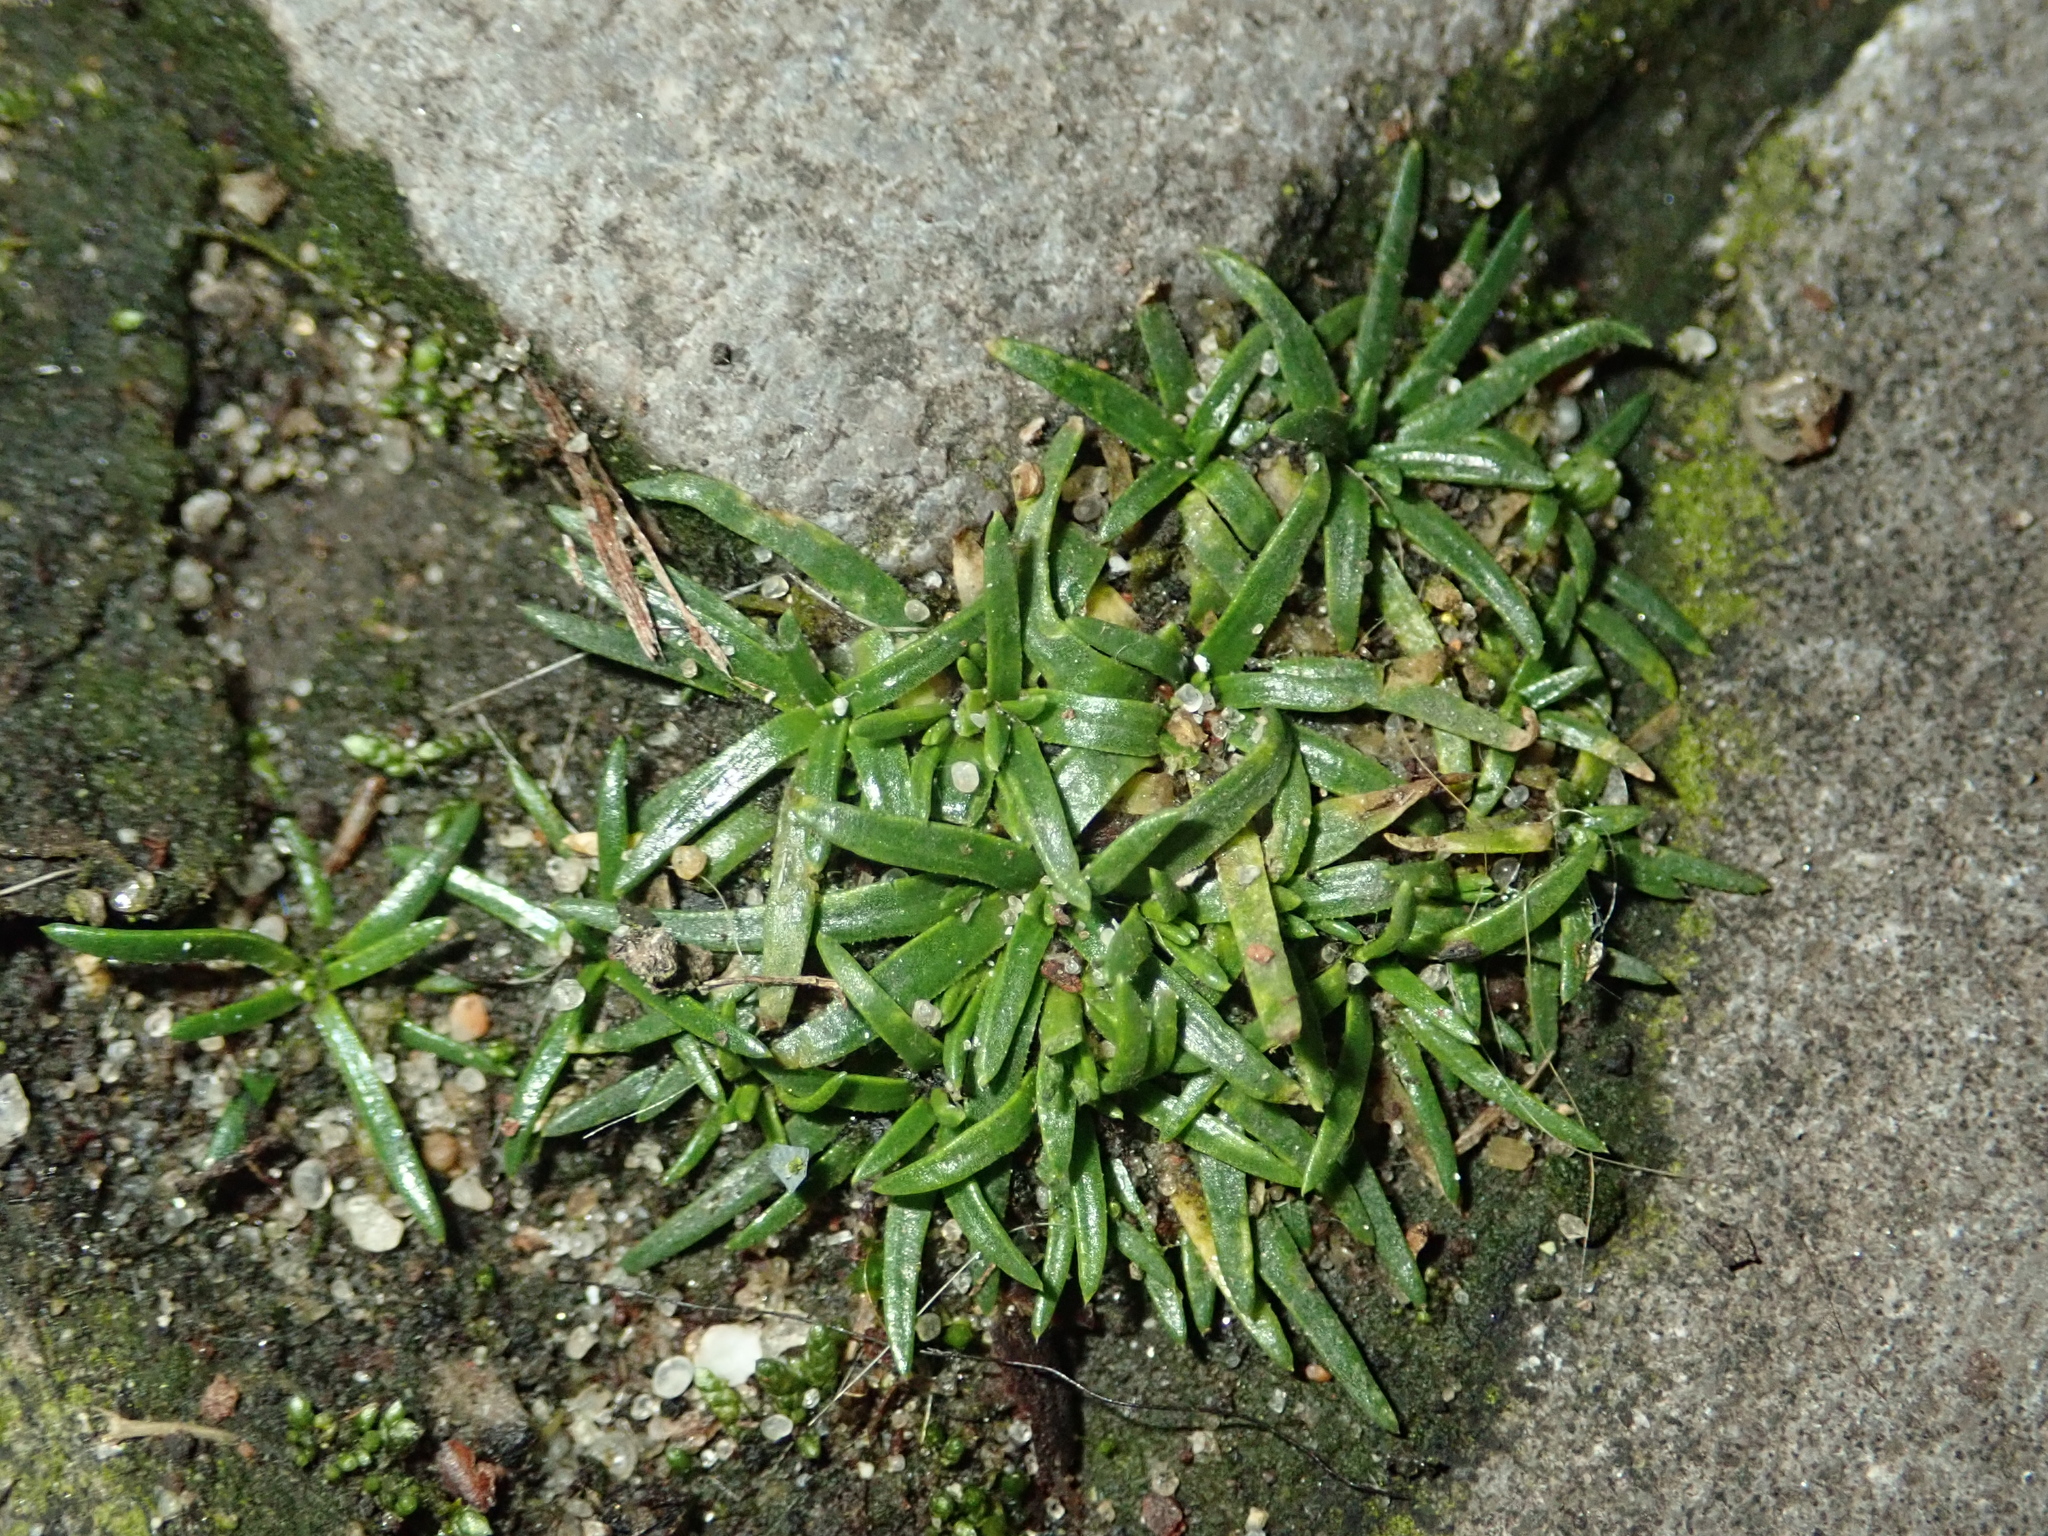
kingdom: Plantae
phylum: Tracheophyta
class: Magnoliopsida
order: Caryophyllales
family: Caryophyllaceae
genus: Sagina
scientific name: Sagina procumbens
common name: Procumbent pearlwort
